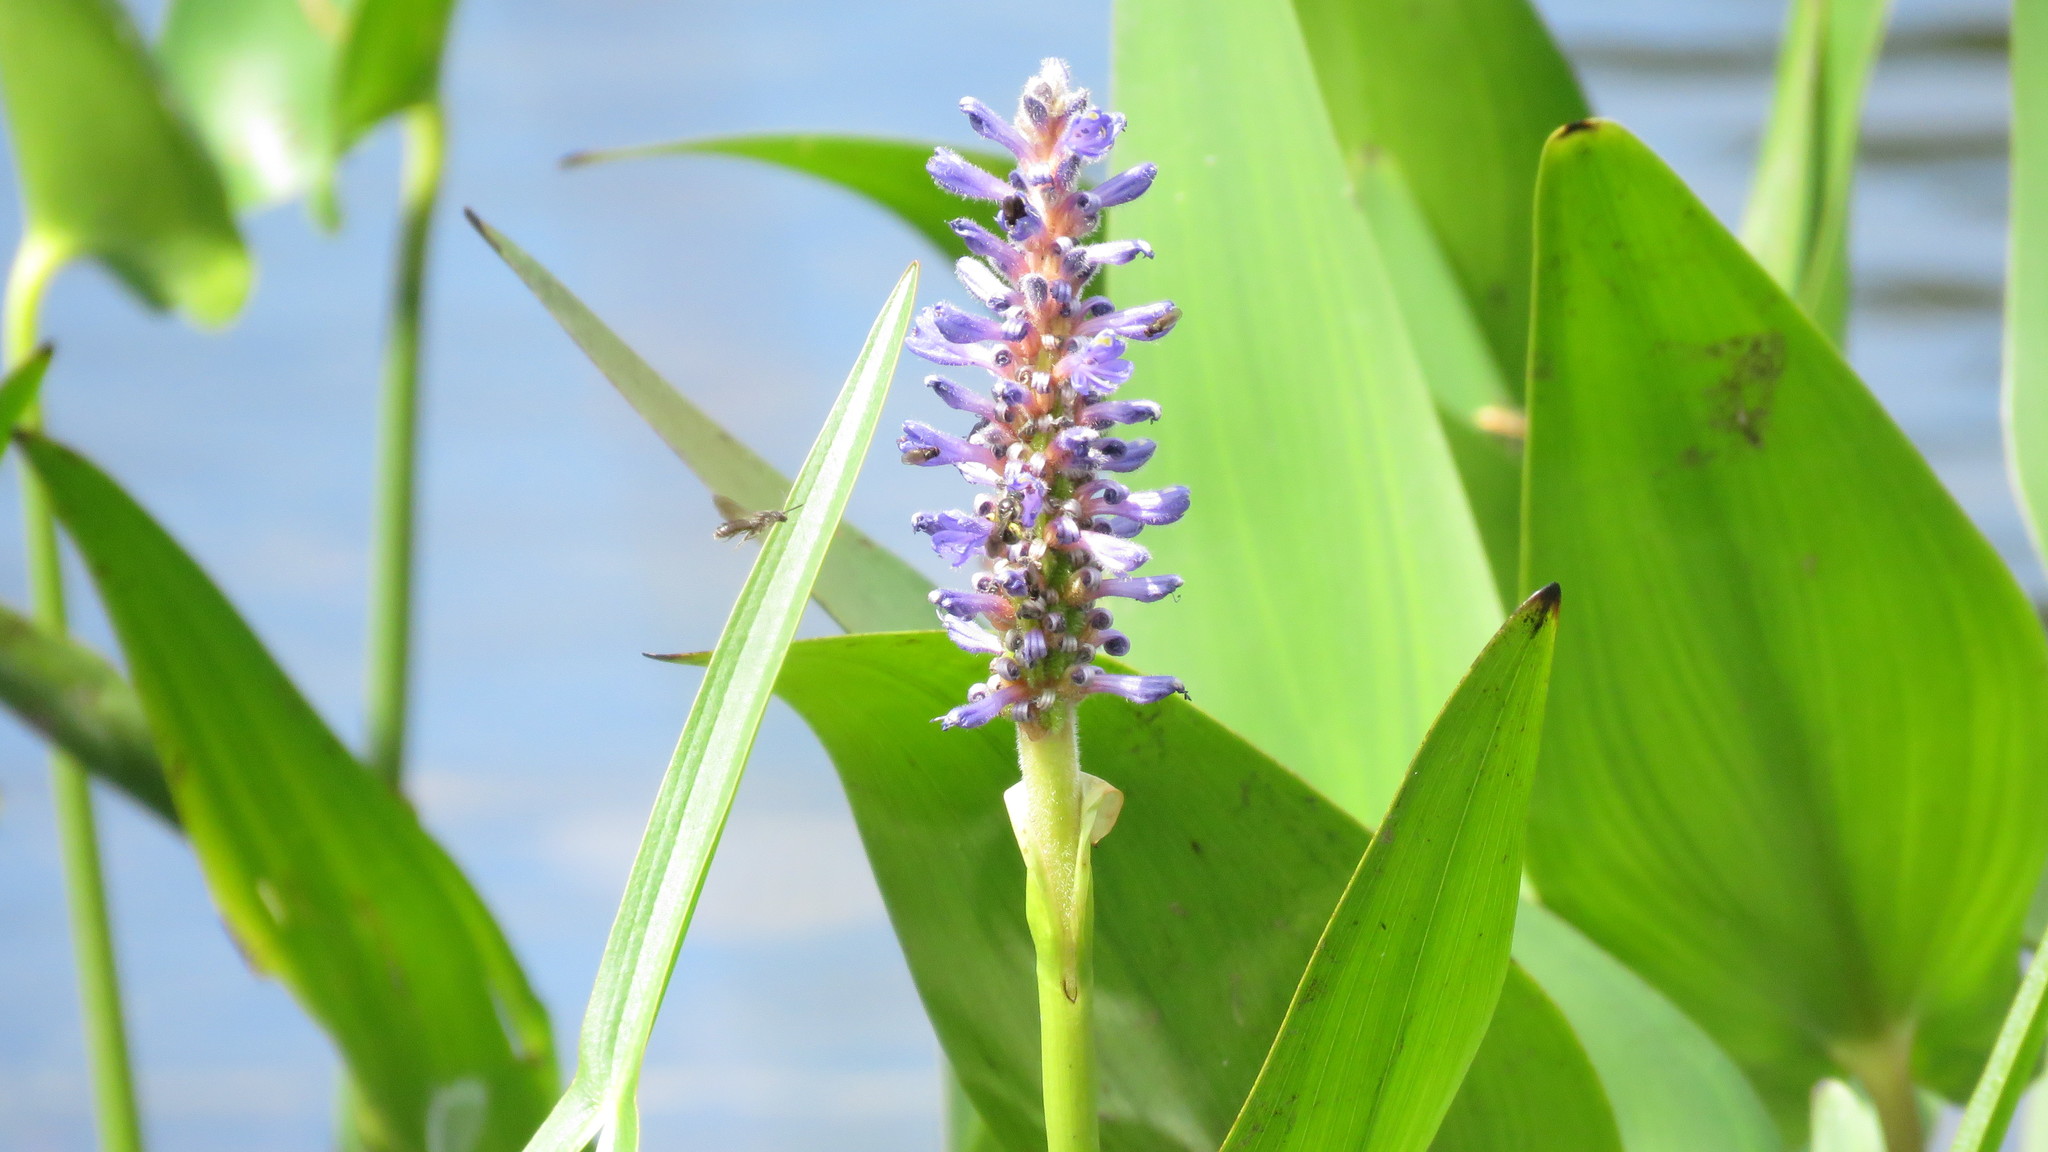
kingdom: Plantae
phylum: Tracheophyta
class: Liliopsida
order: Commelinales
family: Pontederiaceae
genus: Pontederia
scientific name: Pontederia cordata
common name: Pickerelweed
